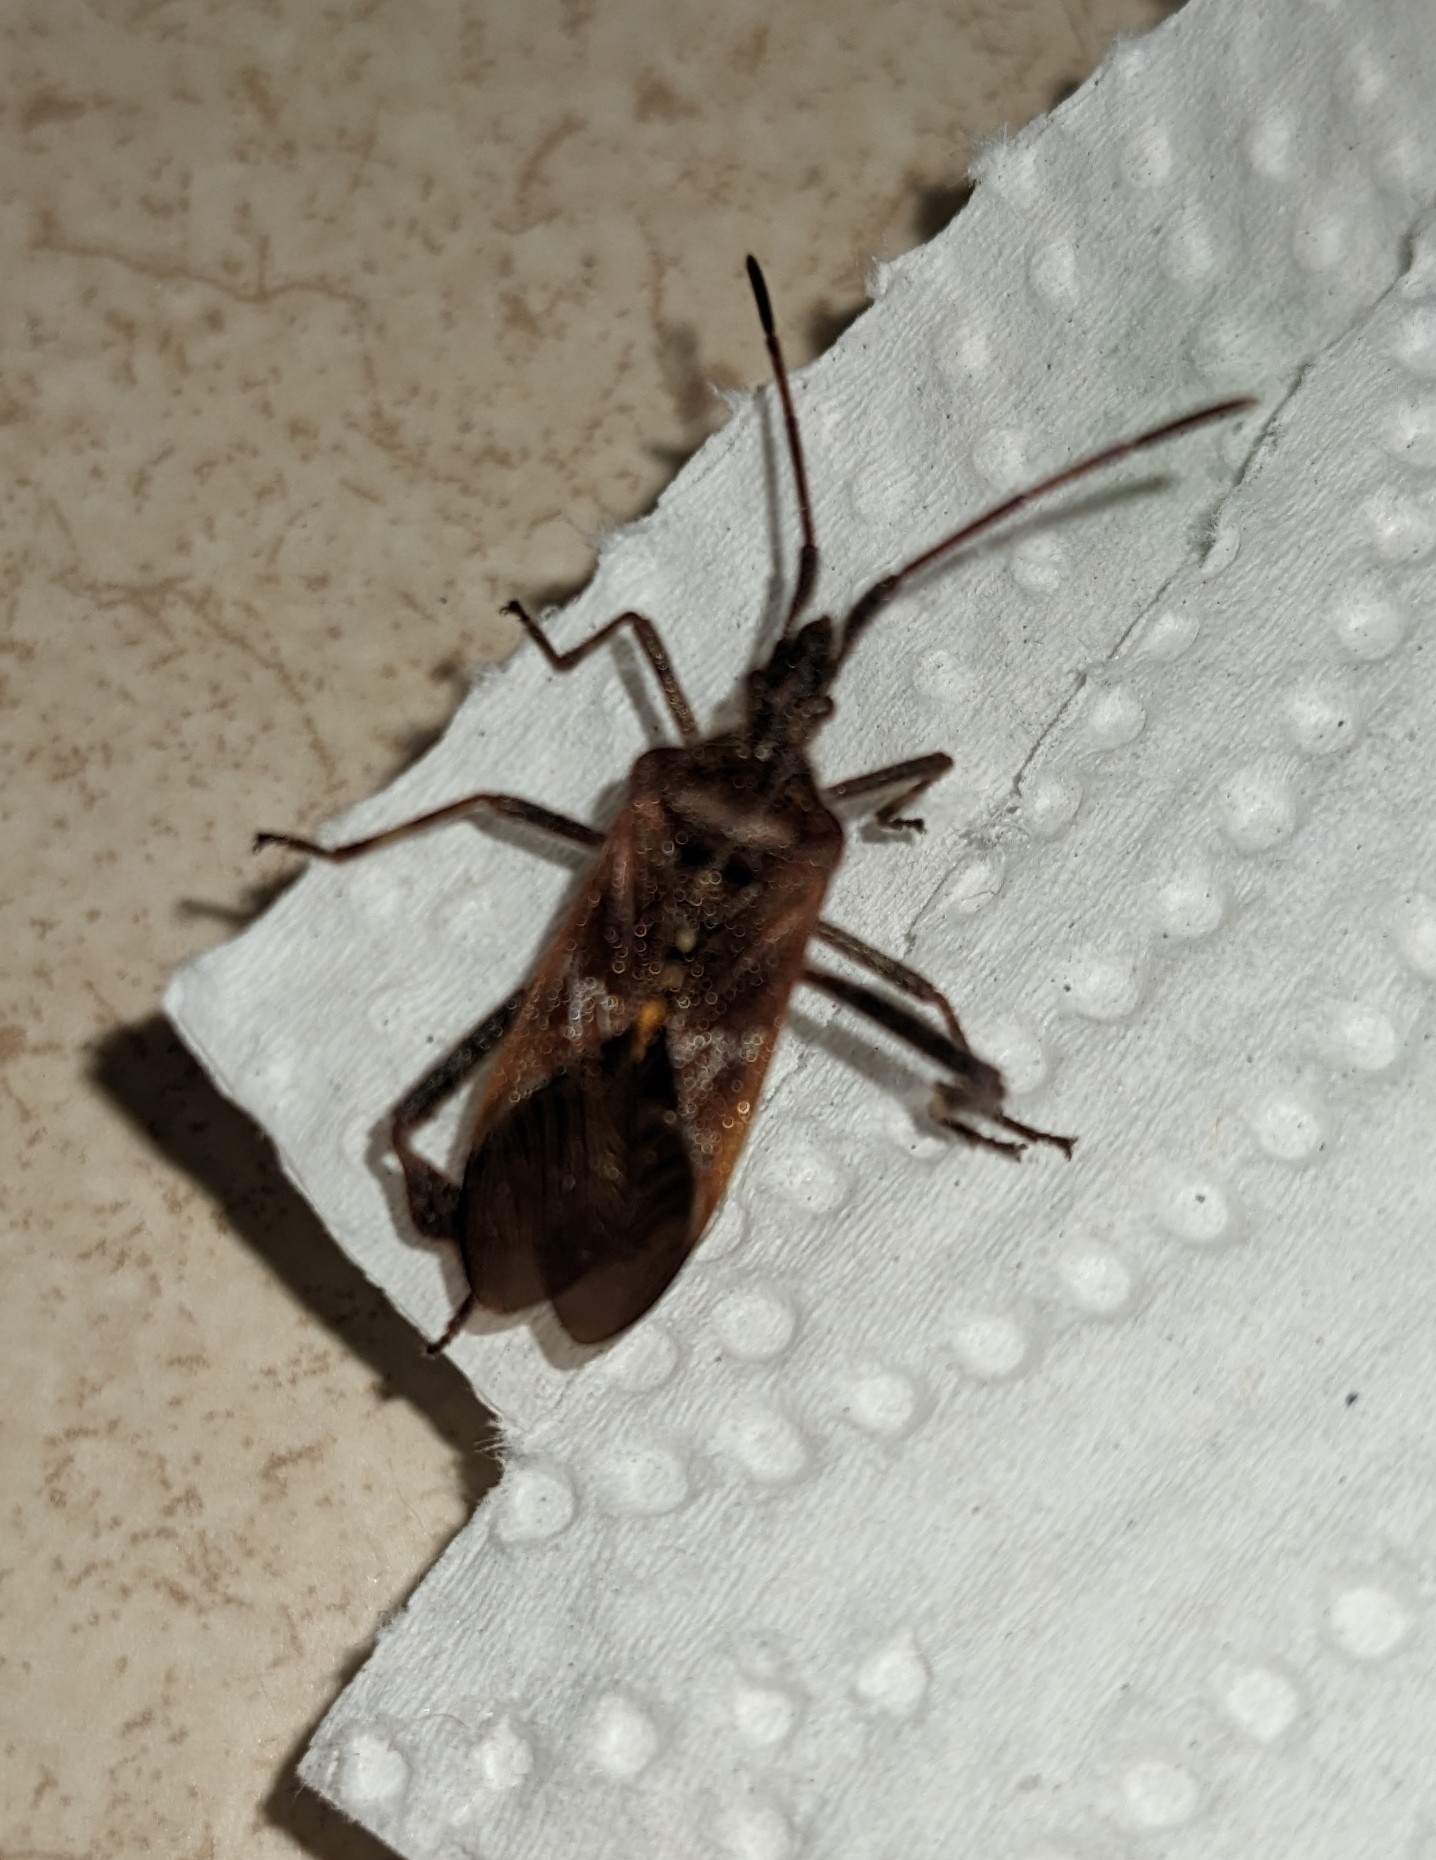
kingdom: Animalia
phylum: Arthropoda
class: Insecta
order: Hemiptera
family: Coreidae
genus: Leptoglossus
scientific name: Leptoglossus occidentalis
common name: Western conifer-seed bug
